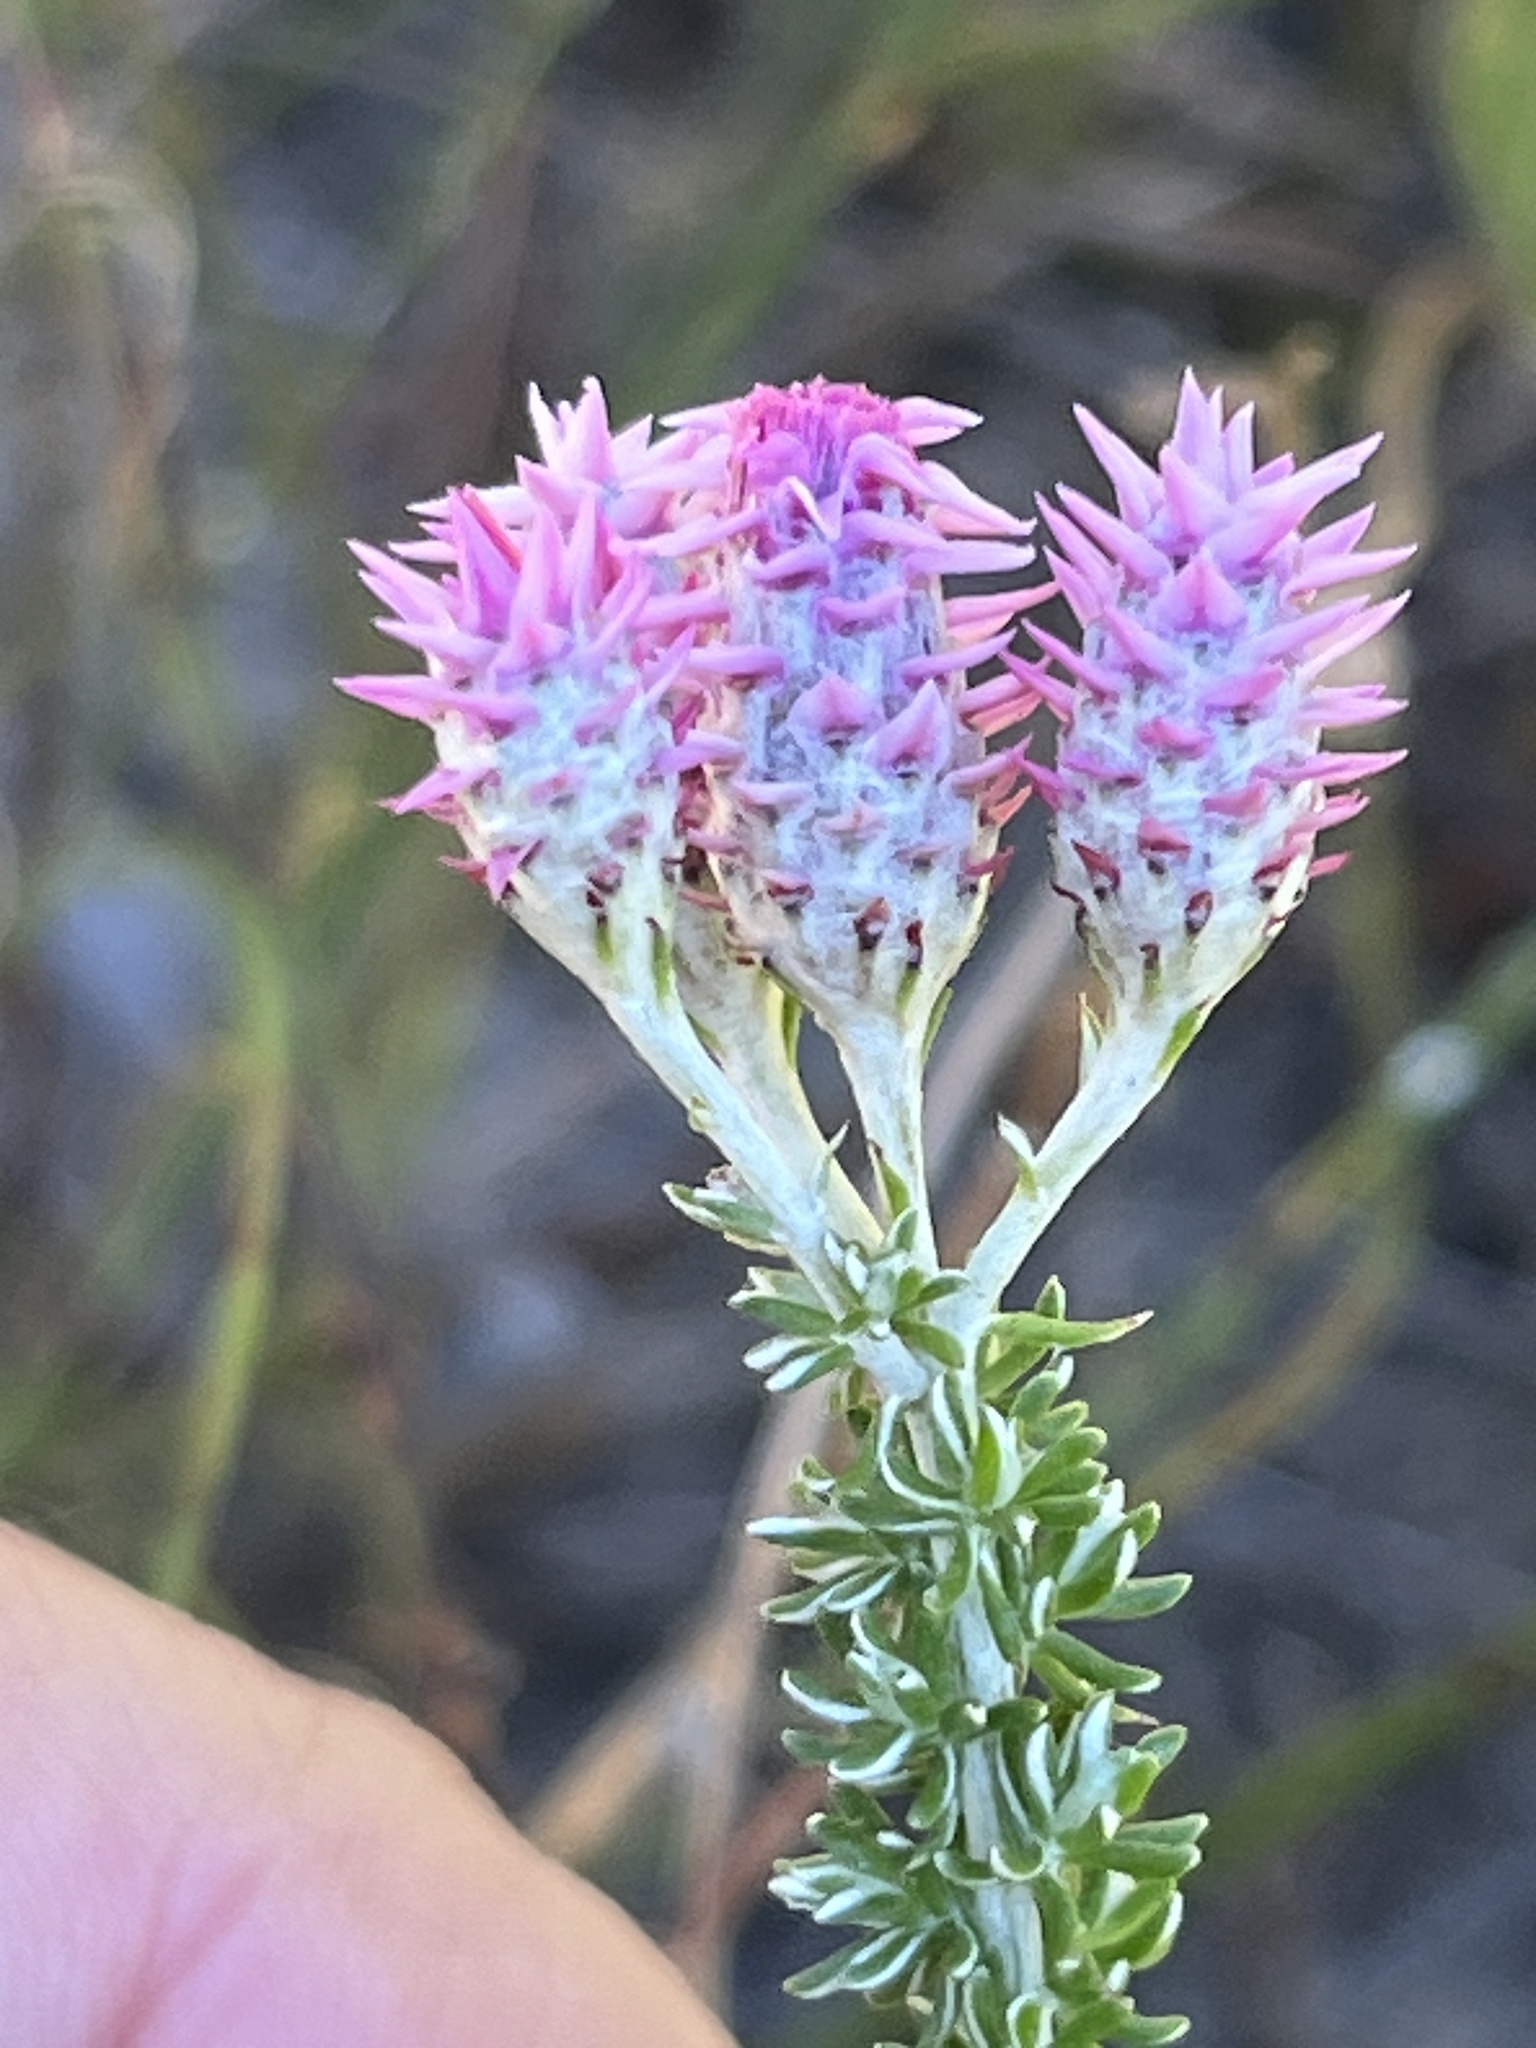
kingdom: Plantae
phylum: Tracheophyta
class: Magnoliopsida
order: Asterales
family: Asteraceae
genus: Lachnospermum
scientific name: Lachnospermum umbellatum
